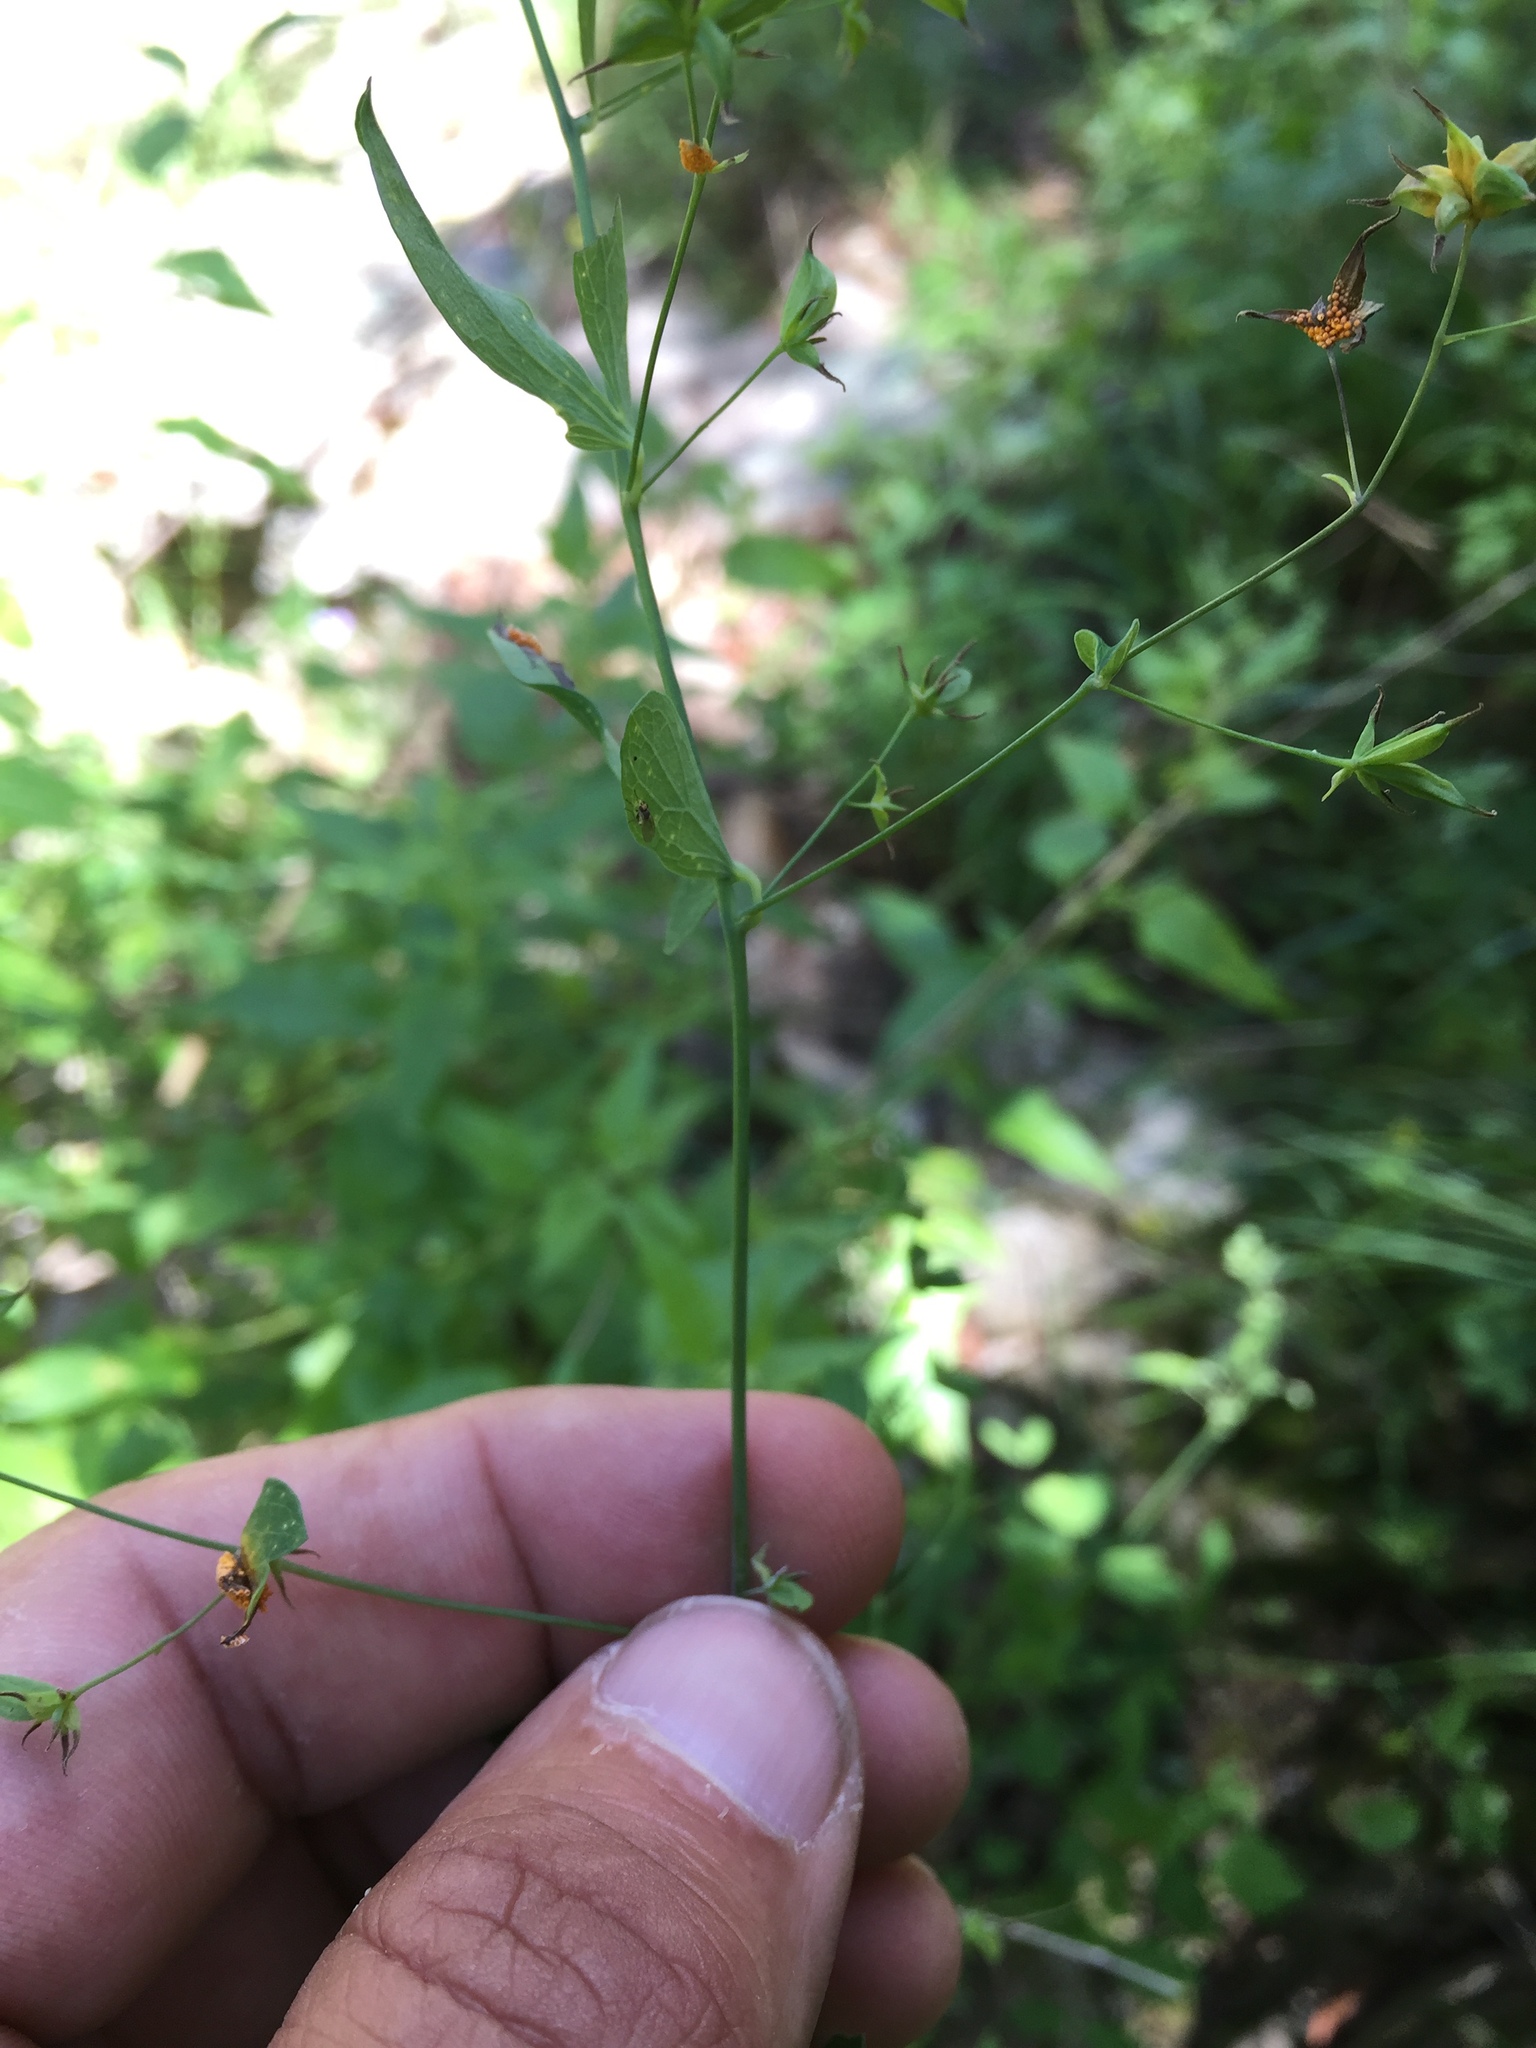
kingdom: Plantae
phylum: Tracheophyta
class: Magnoliopsida
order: Ranunculales
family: Ranunculaceae
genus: Thalictrum
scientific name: Thalictrum fendleri
